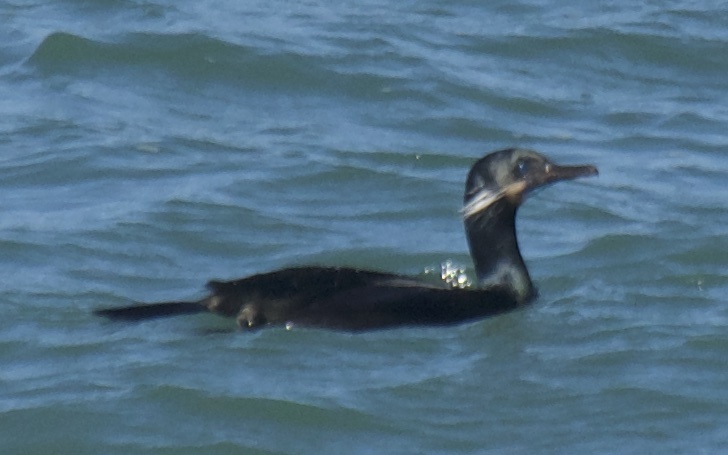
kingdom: Animalia
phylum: Chordata
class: Aves
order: Suliformes
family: Phalacrocoracidae
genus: Urile
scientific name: Urile penicillatus
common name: Brandt's cormorant
